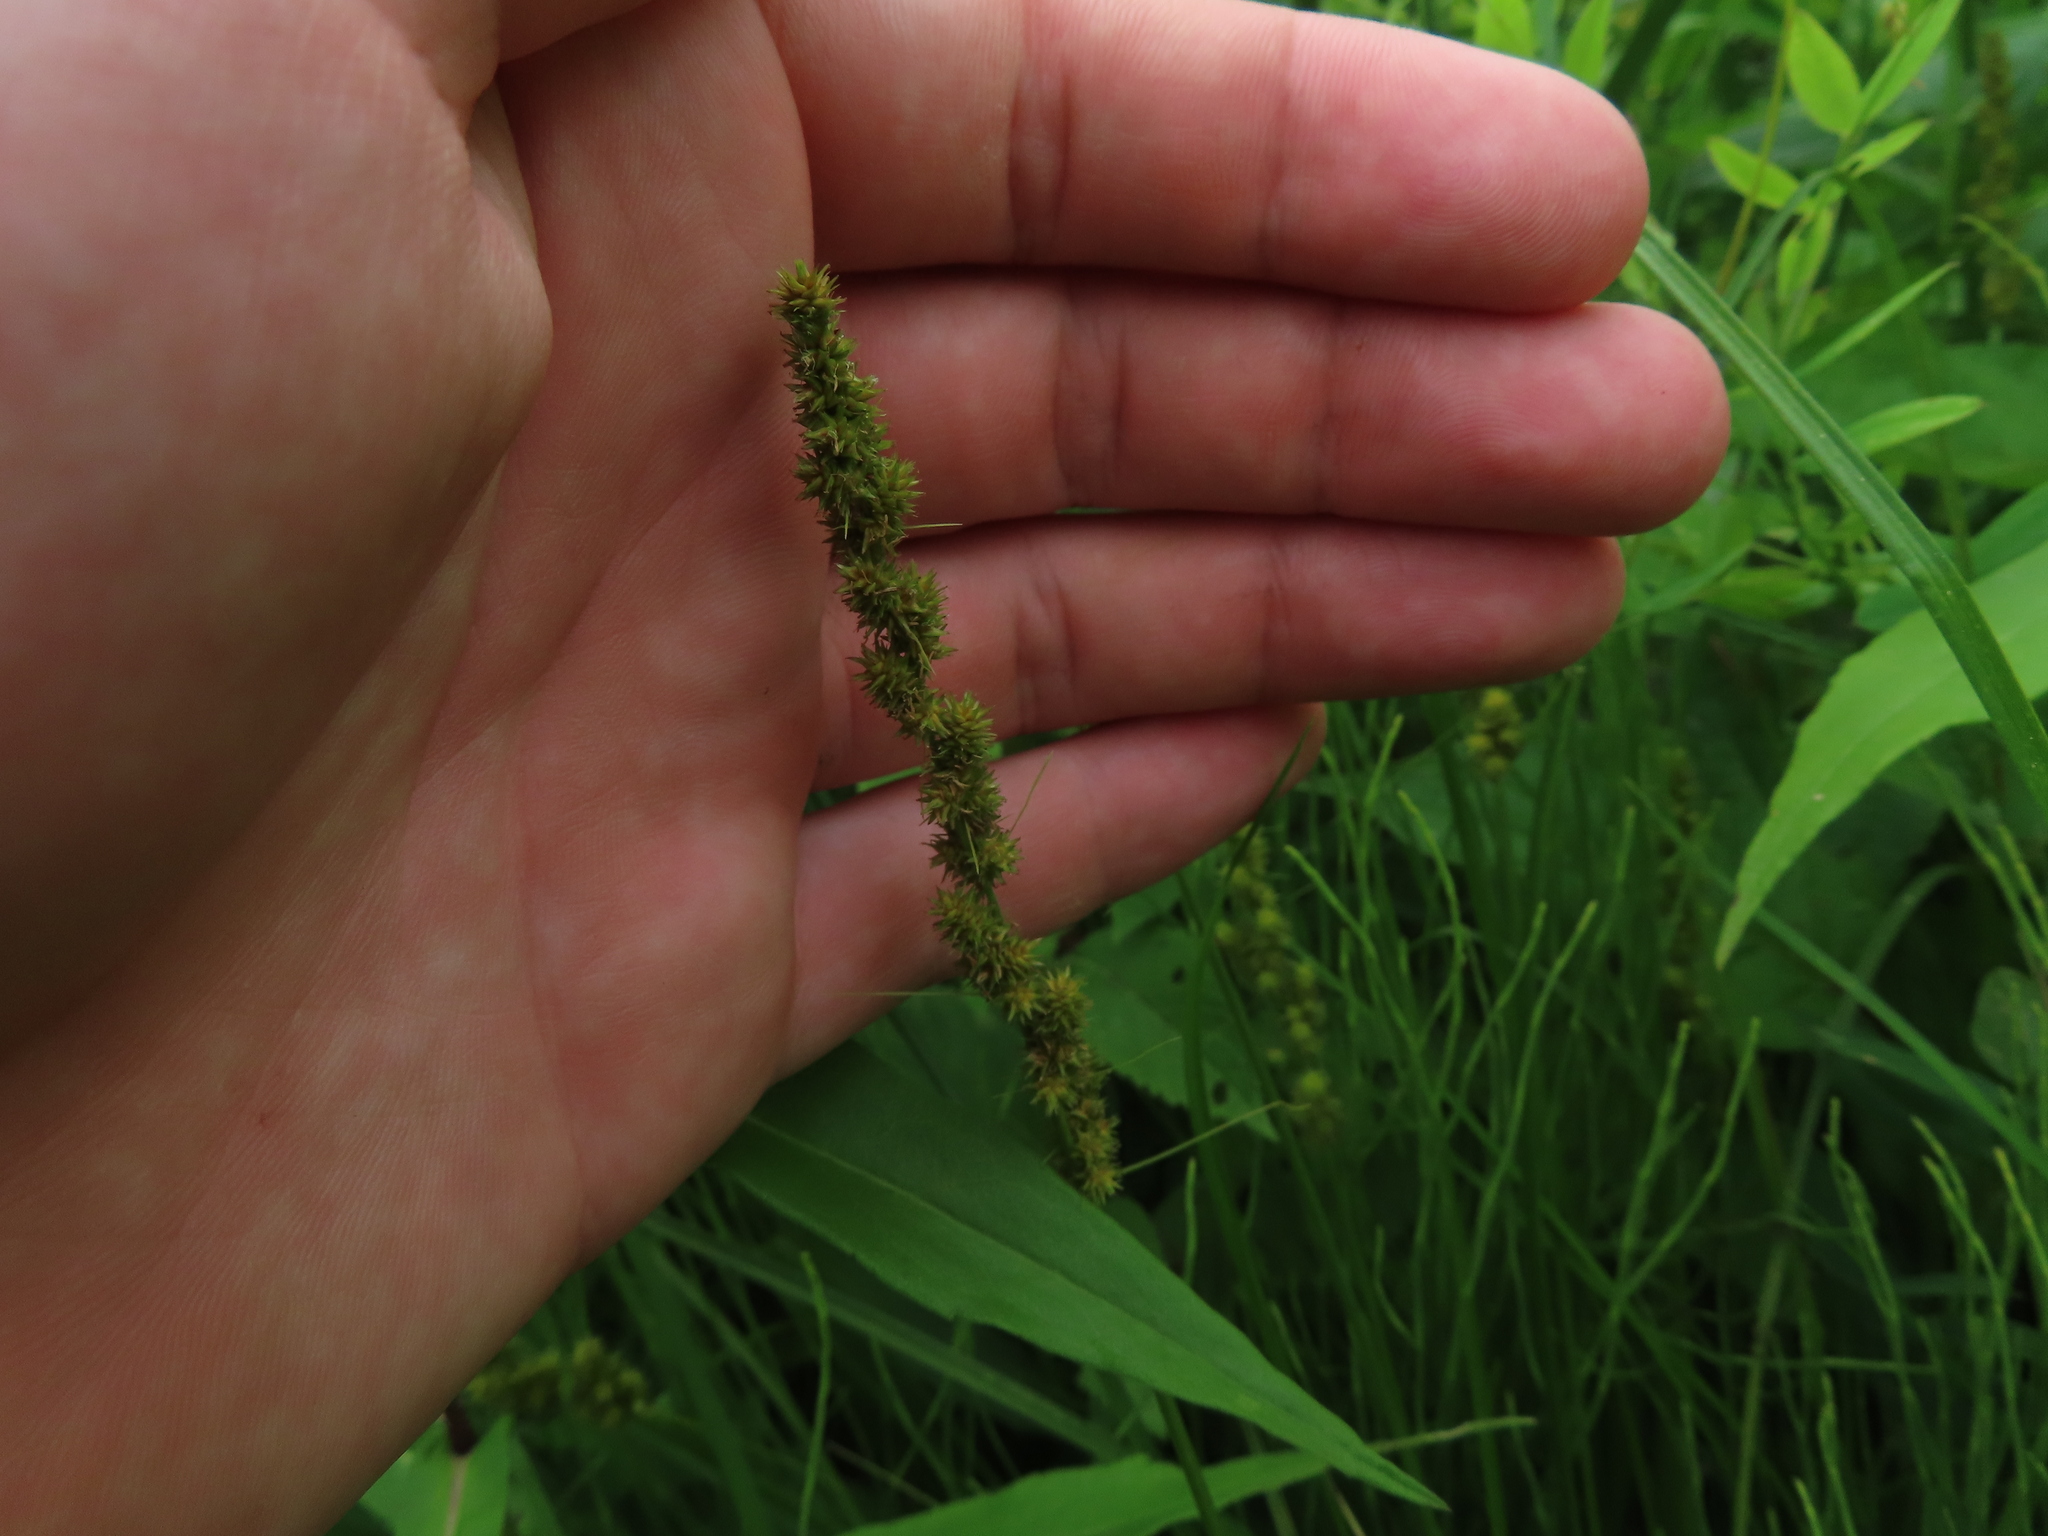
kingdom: Plantae
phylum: Tracheophyta
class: Liliopsida
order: Poales
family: Cyperaceae
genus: Carex
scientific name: Carex vulpinoidea
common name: American fox-sedge
